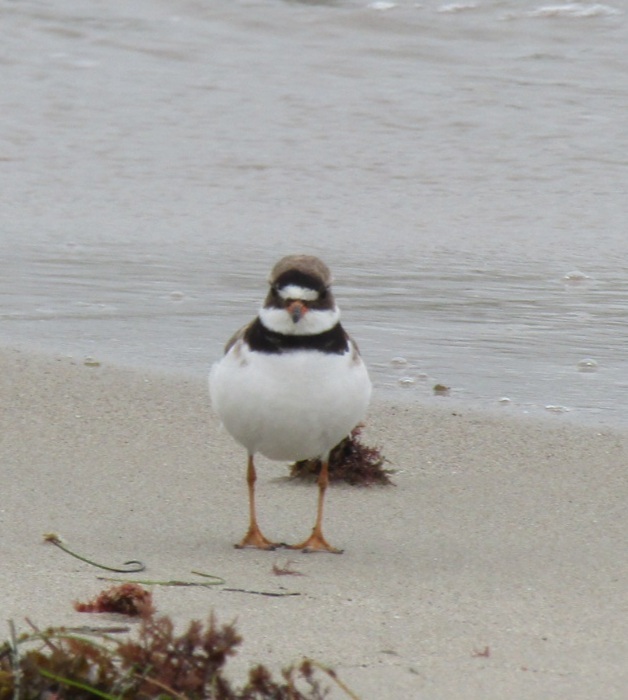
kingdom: Animalia
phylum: Chordata
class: Aves
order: Charadriiformes
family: Charadriidae
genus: Charadrius
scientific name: Charadrius semipalmatus
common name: Semipalmated plover
